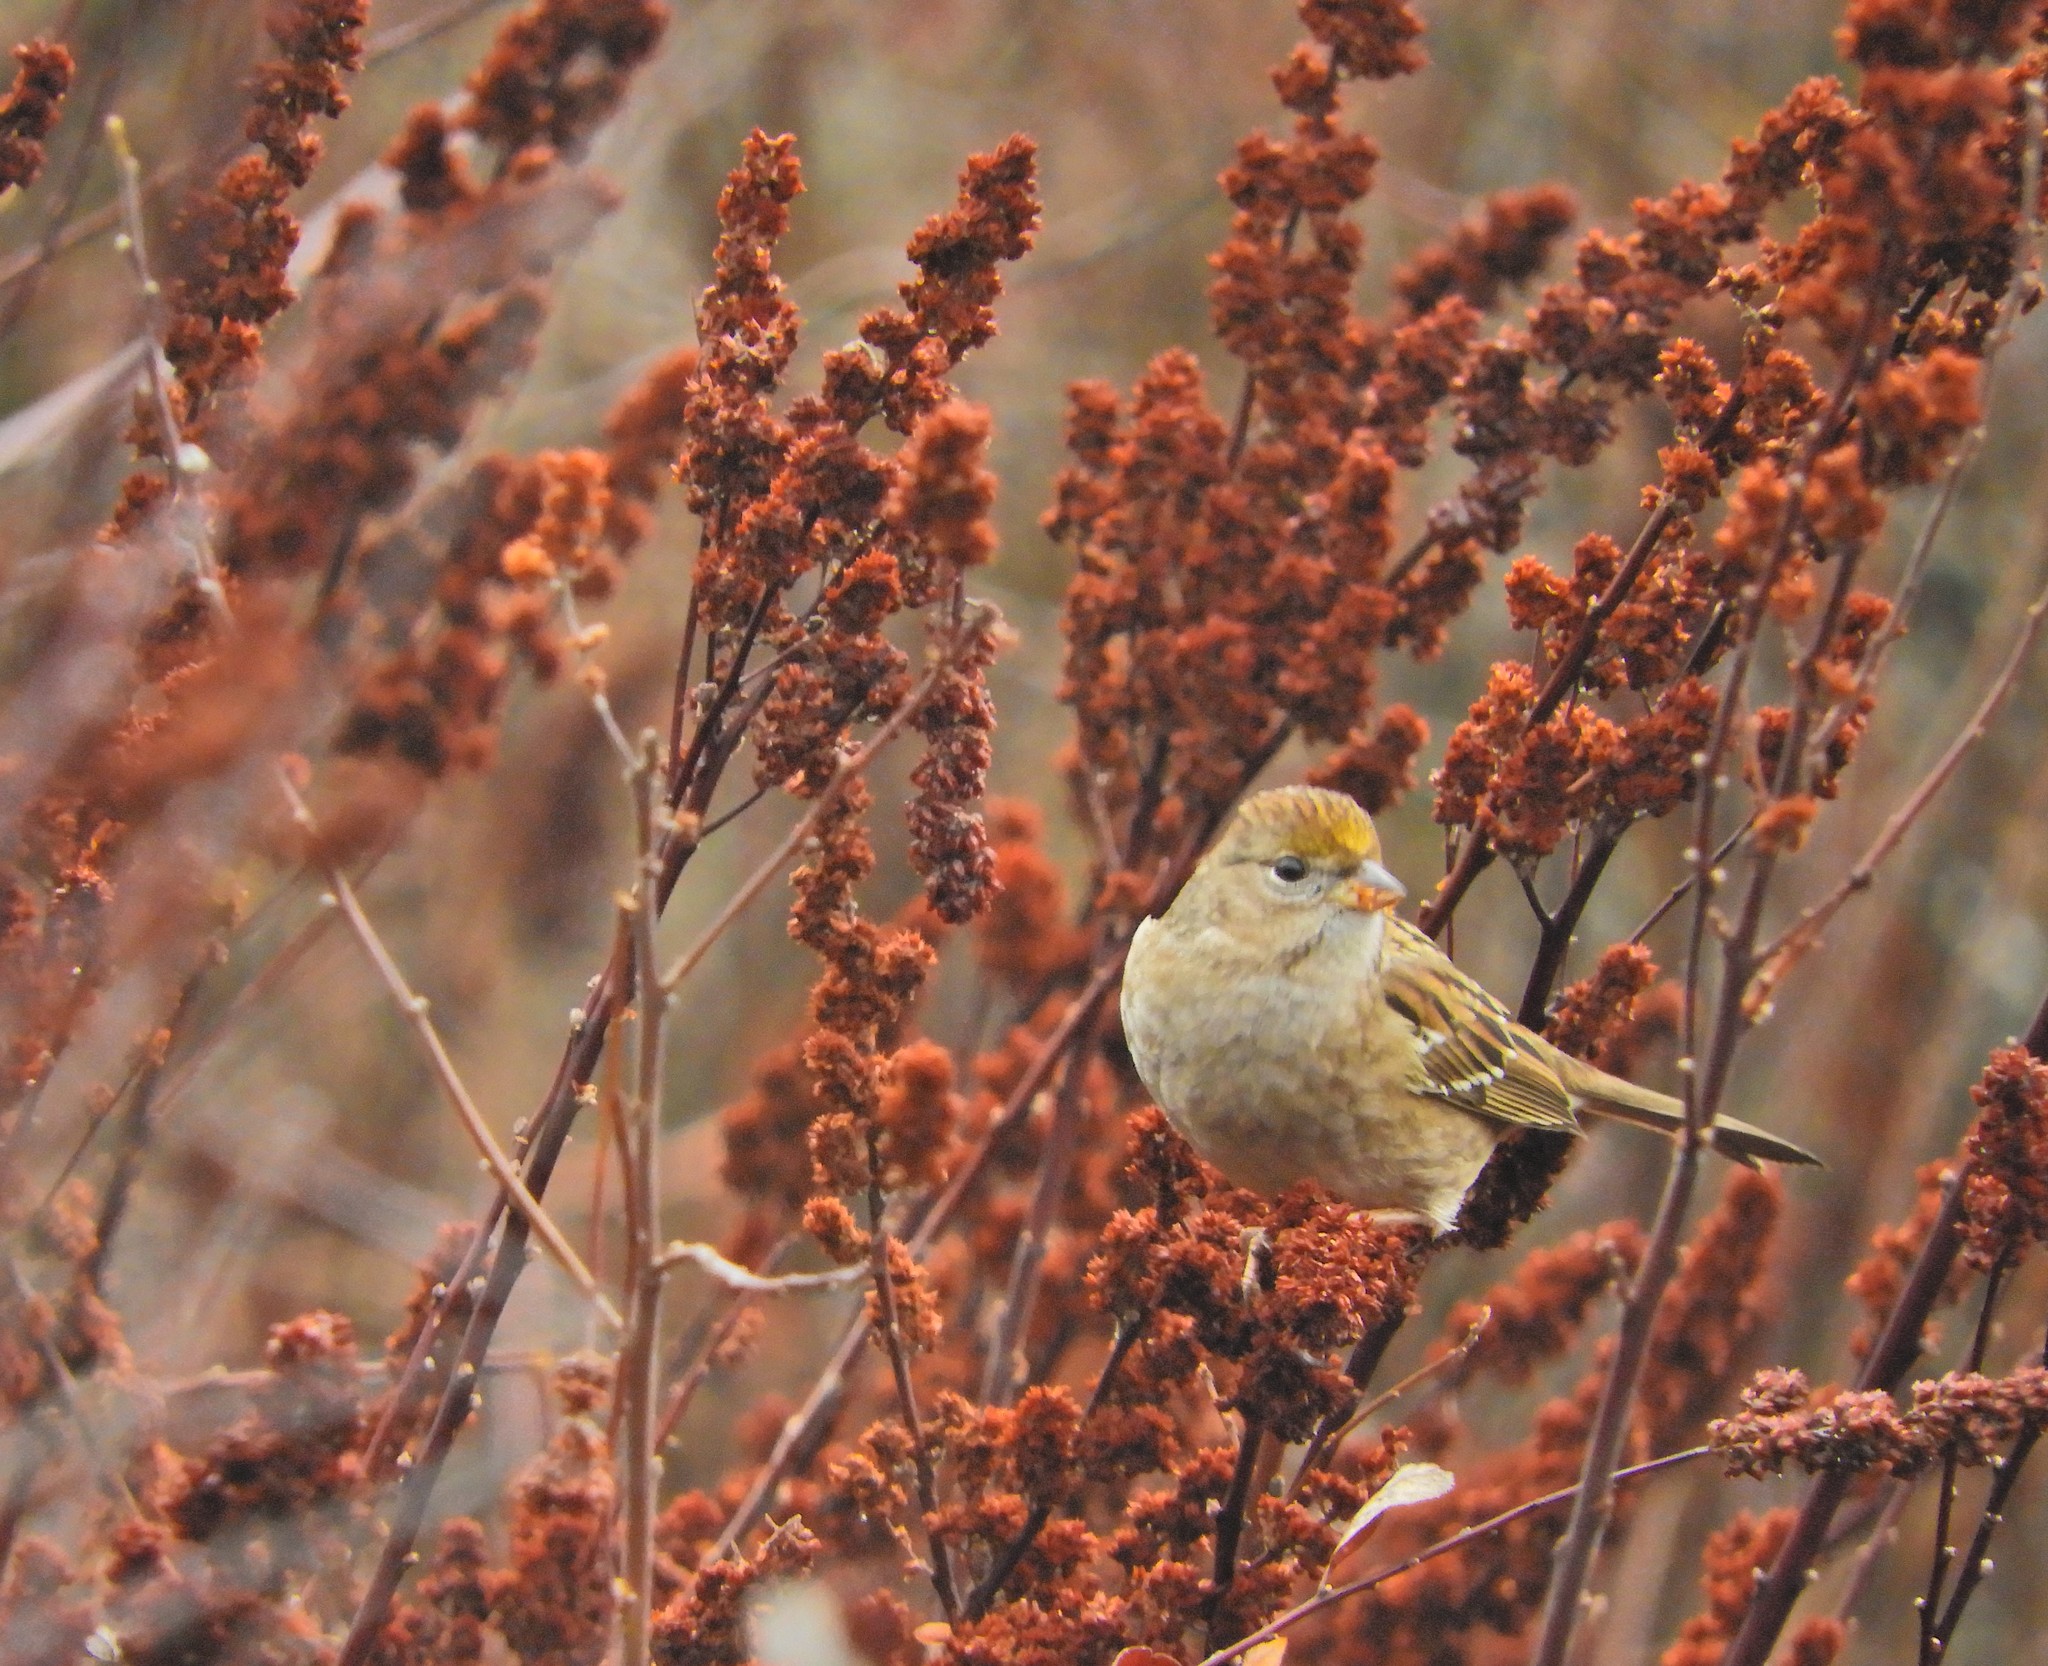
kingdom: Animalia
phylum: Chordata
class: Aves
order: Passeriformes
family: Passerellidae
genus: Zonotrichia
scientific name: Zonotrichia atricapilla
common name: Golden-crowned sparrow
